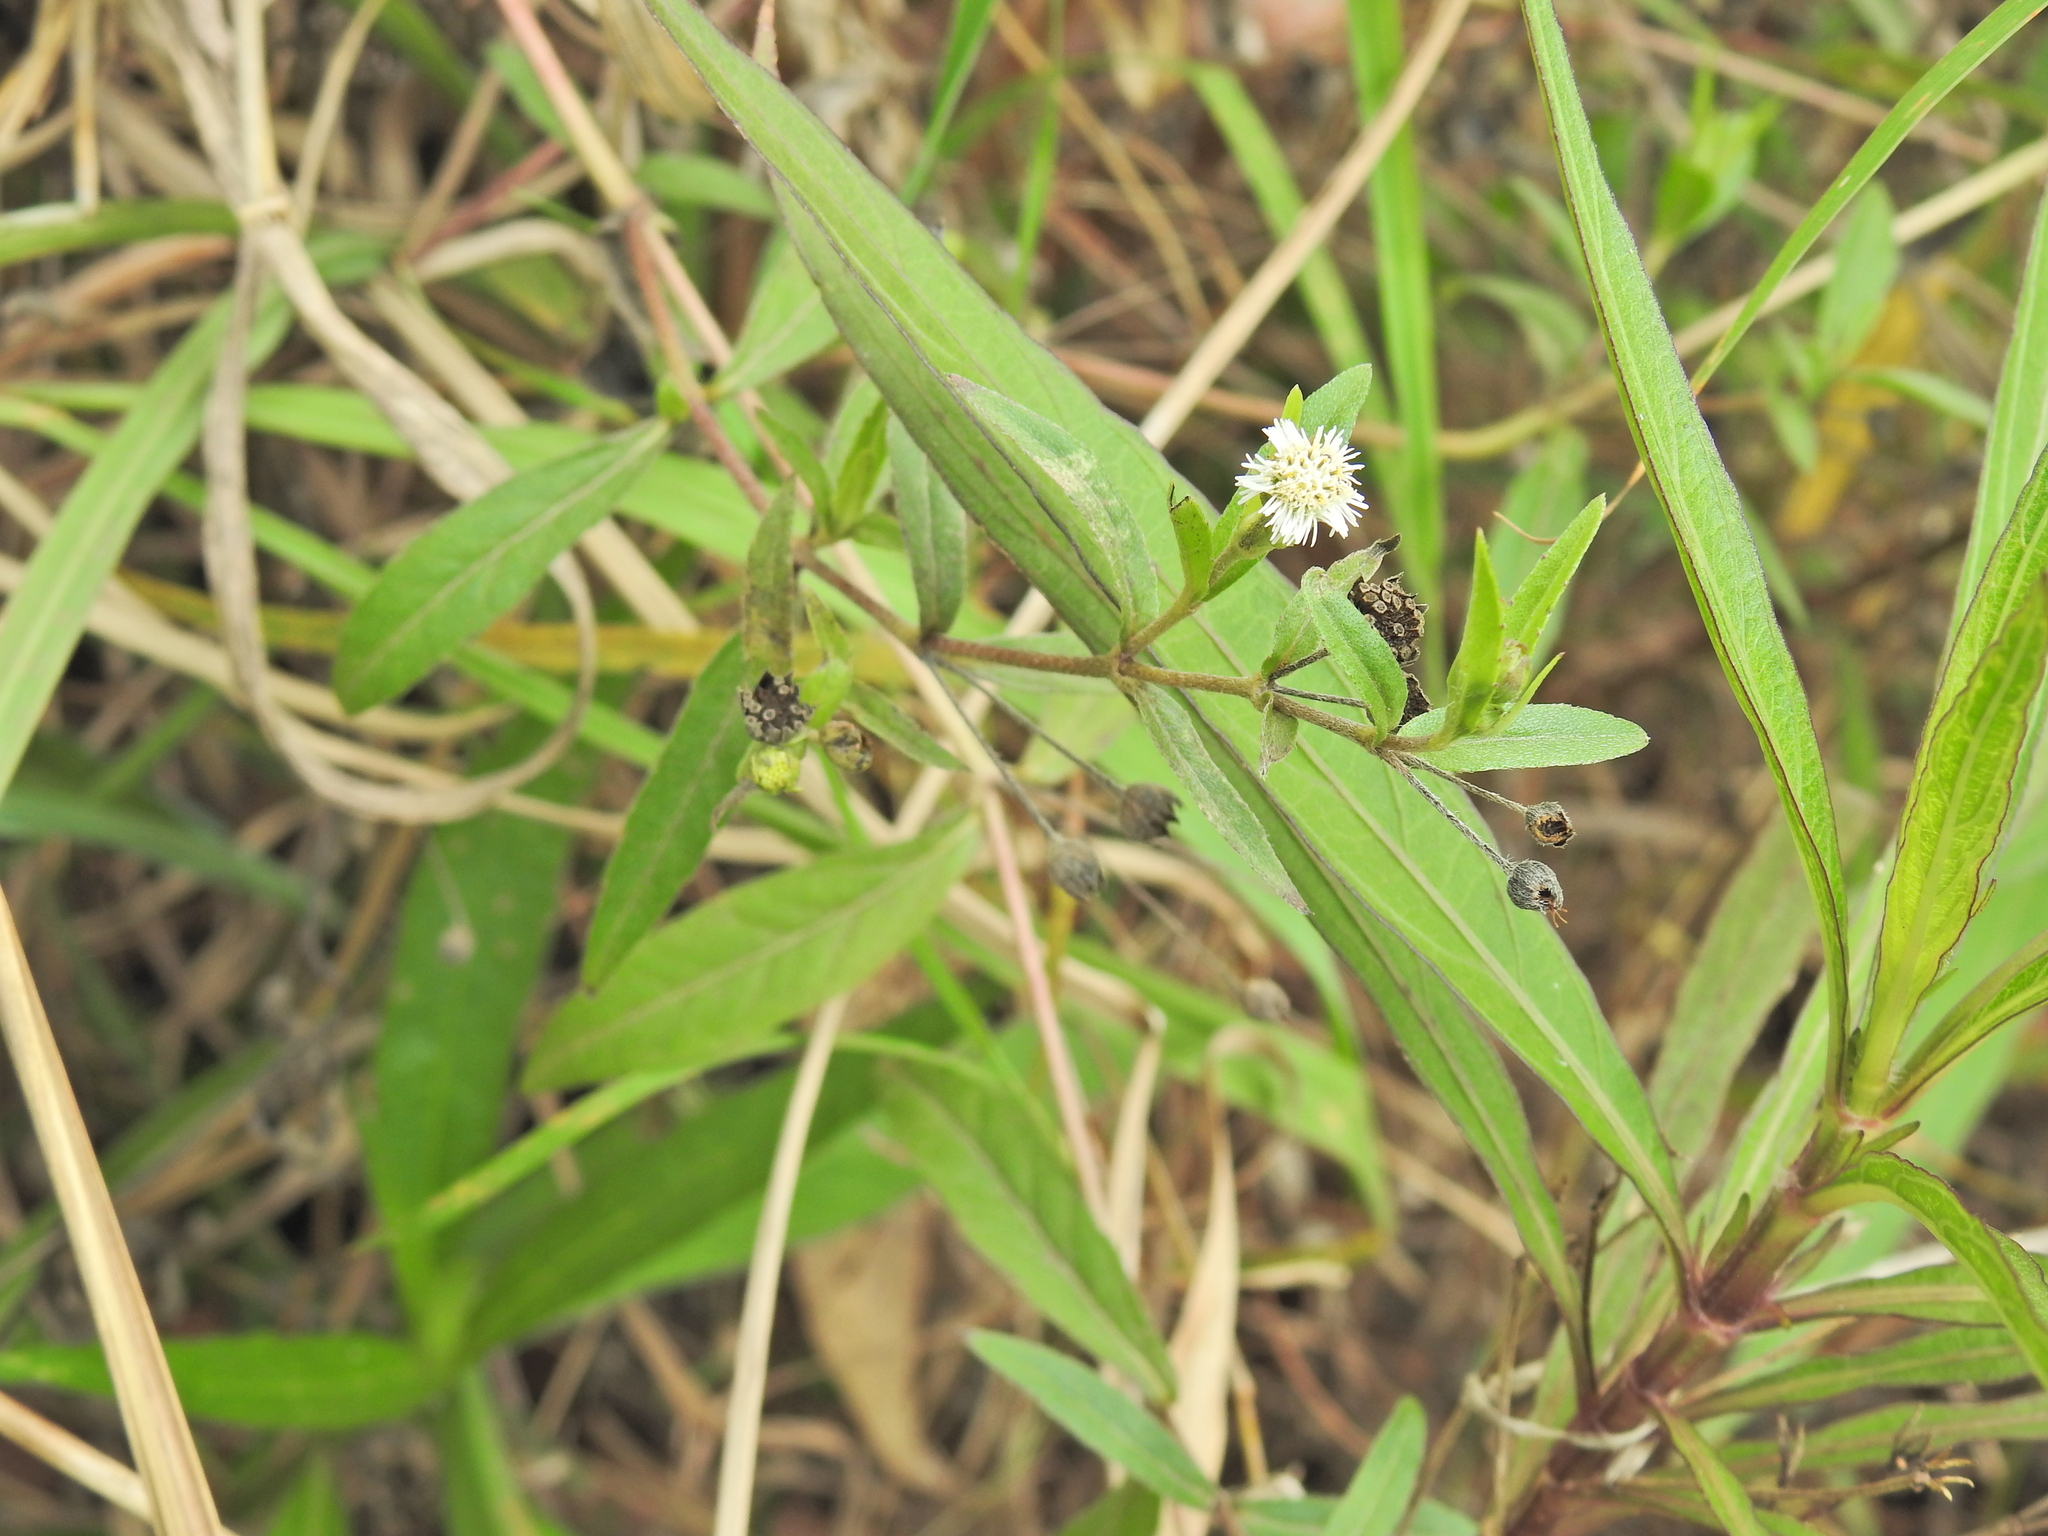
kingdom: Plantae
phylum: Tracheophyta
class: Magnoliopsida
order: Asterales
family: Asteraceae
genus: Eclipta
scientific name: Eclipta prostrata
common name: False daisy
